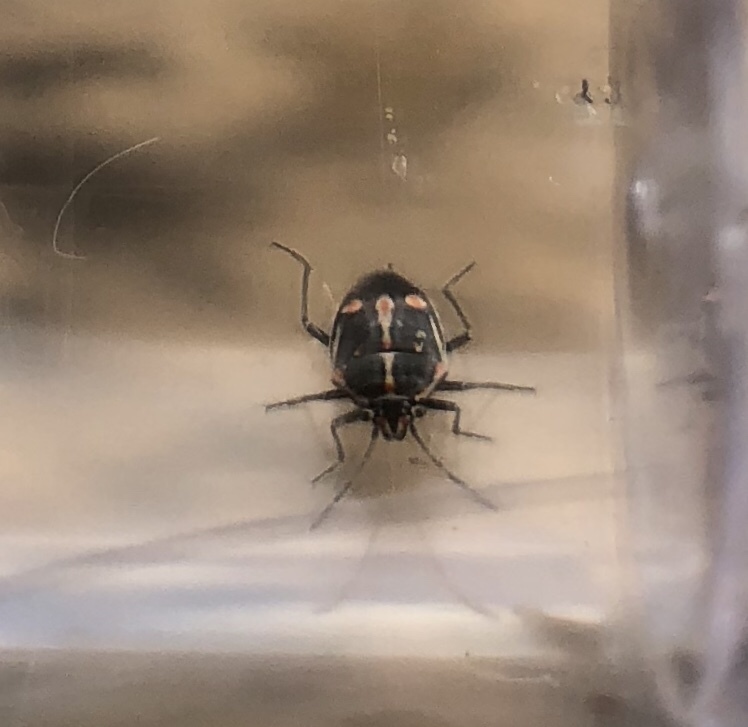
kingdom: Animalia
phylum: Arthropoda
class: Insecta
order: Hemiptera
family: Pentatomidae
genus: Bagrada
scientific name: Bagrada hilaris
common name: Bagrada bug
